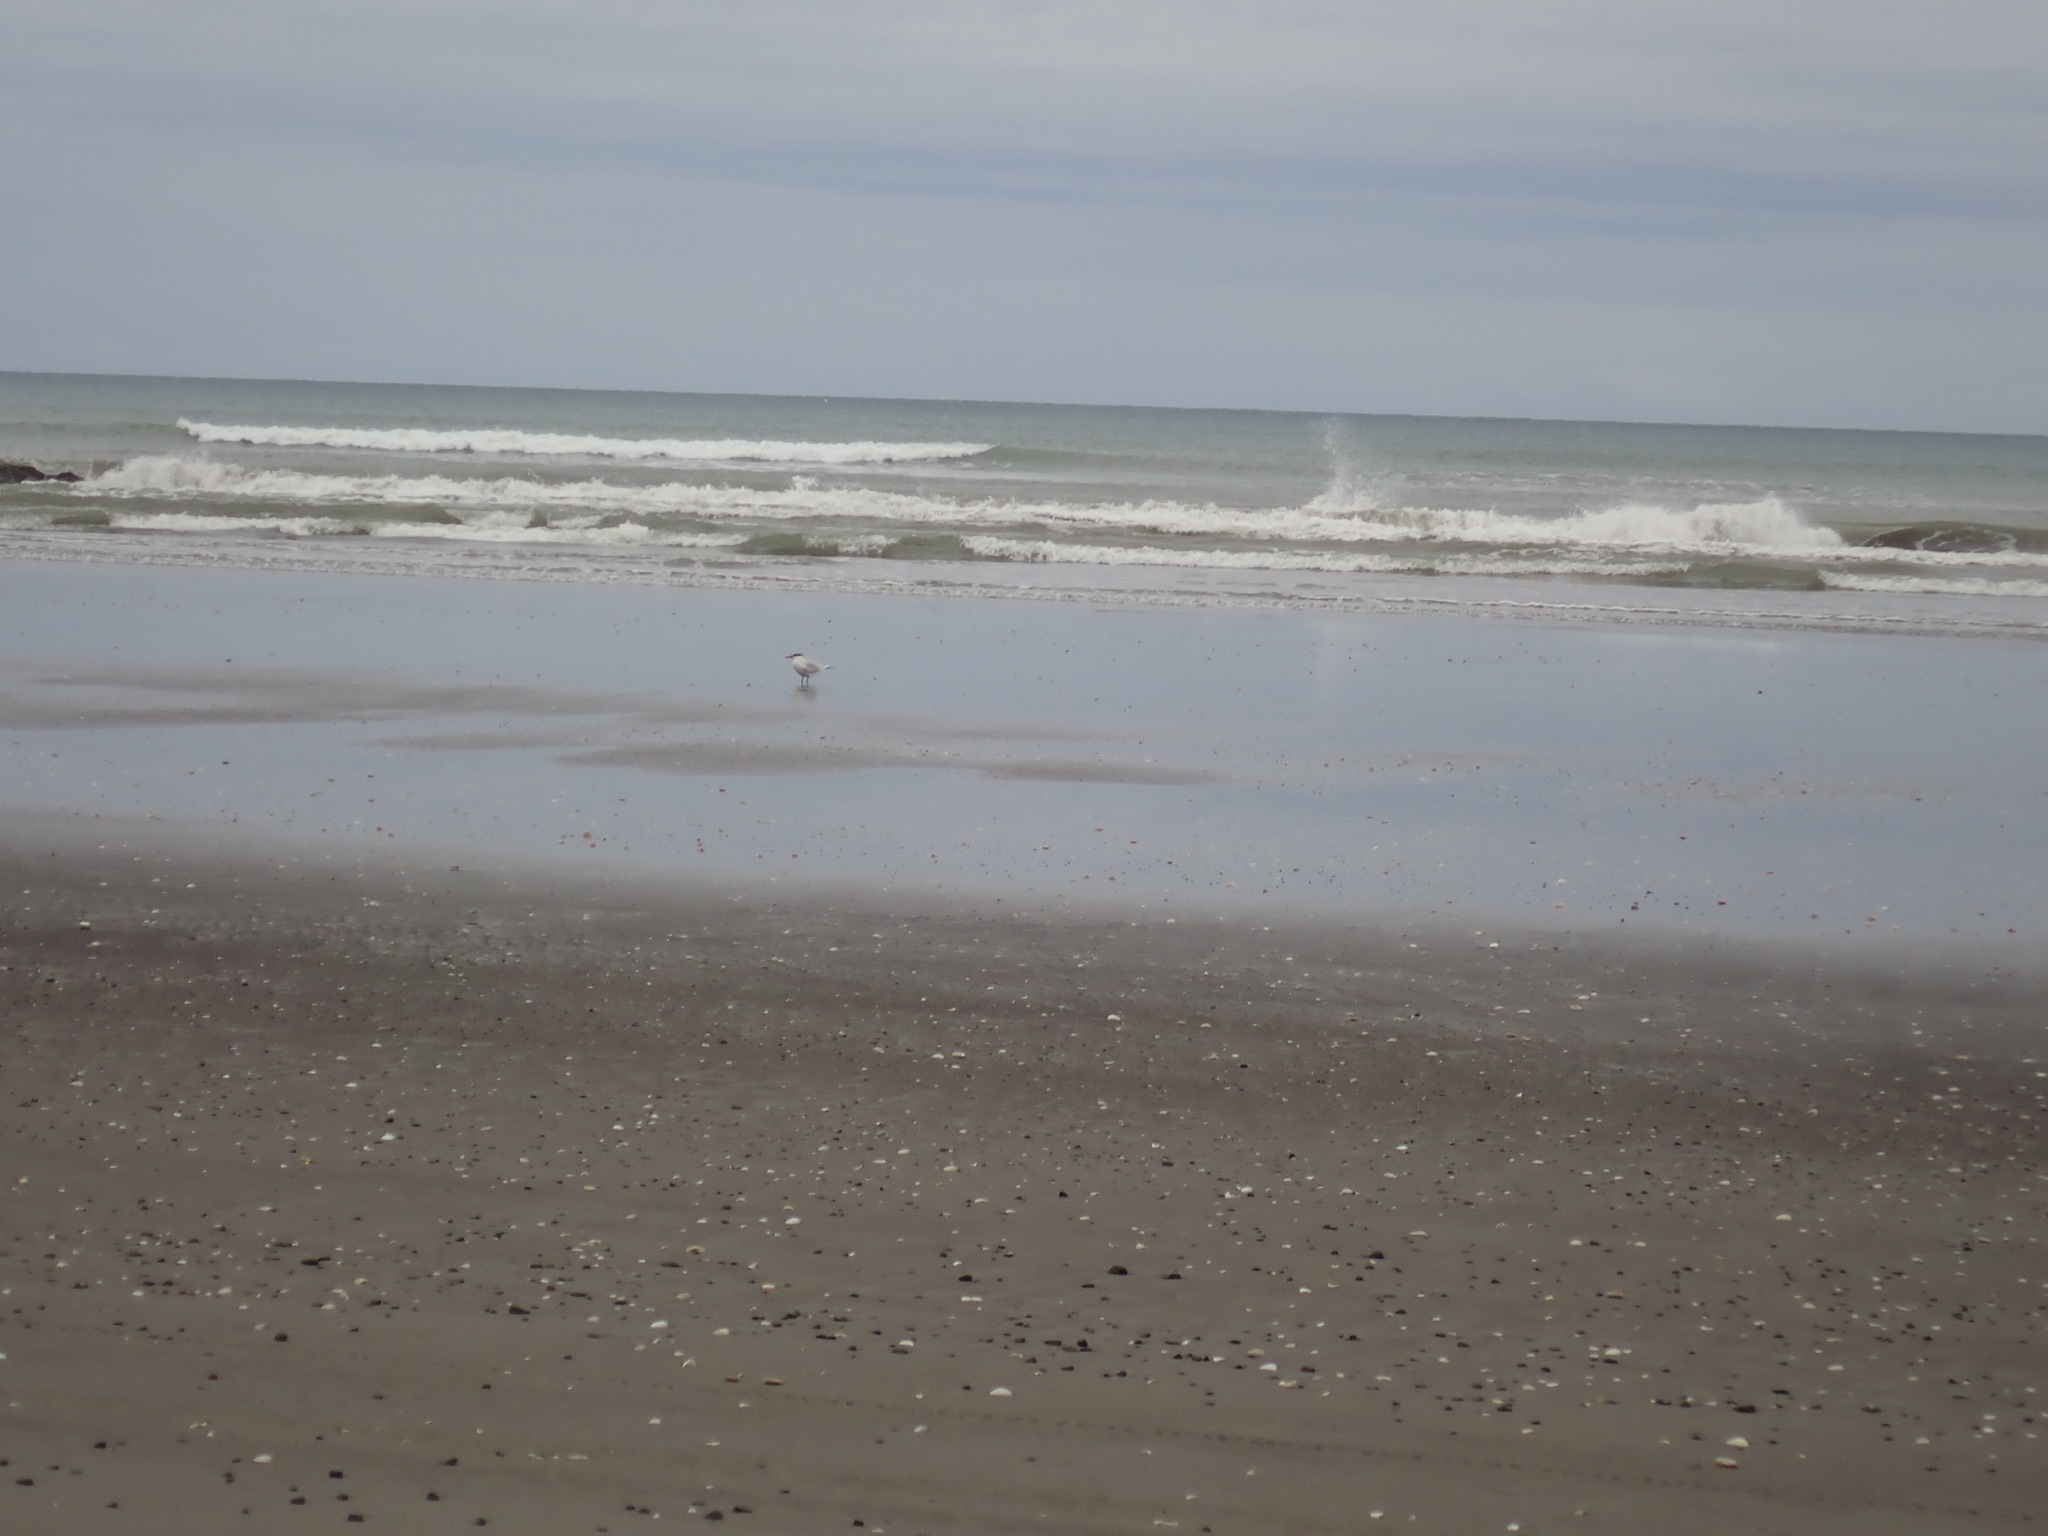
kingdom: Animalia
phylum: Chordata
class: Aves
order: Charadriiformes
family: Laridae
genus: Hydroprogne
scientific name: Hydroprogne caspia
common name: Caspian tern
